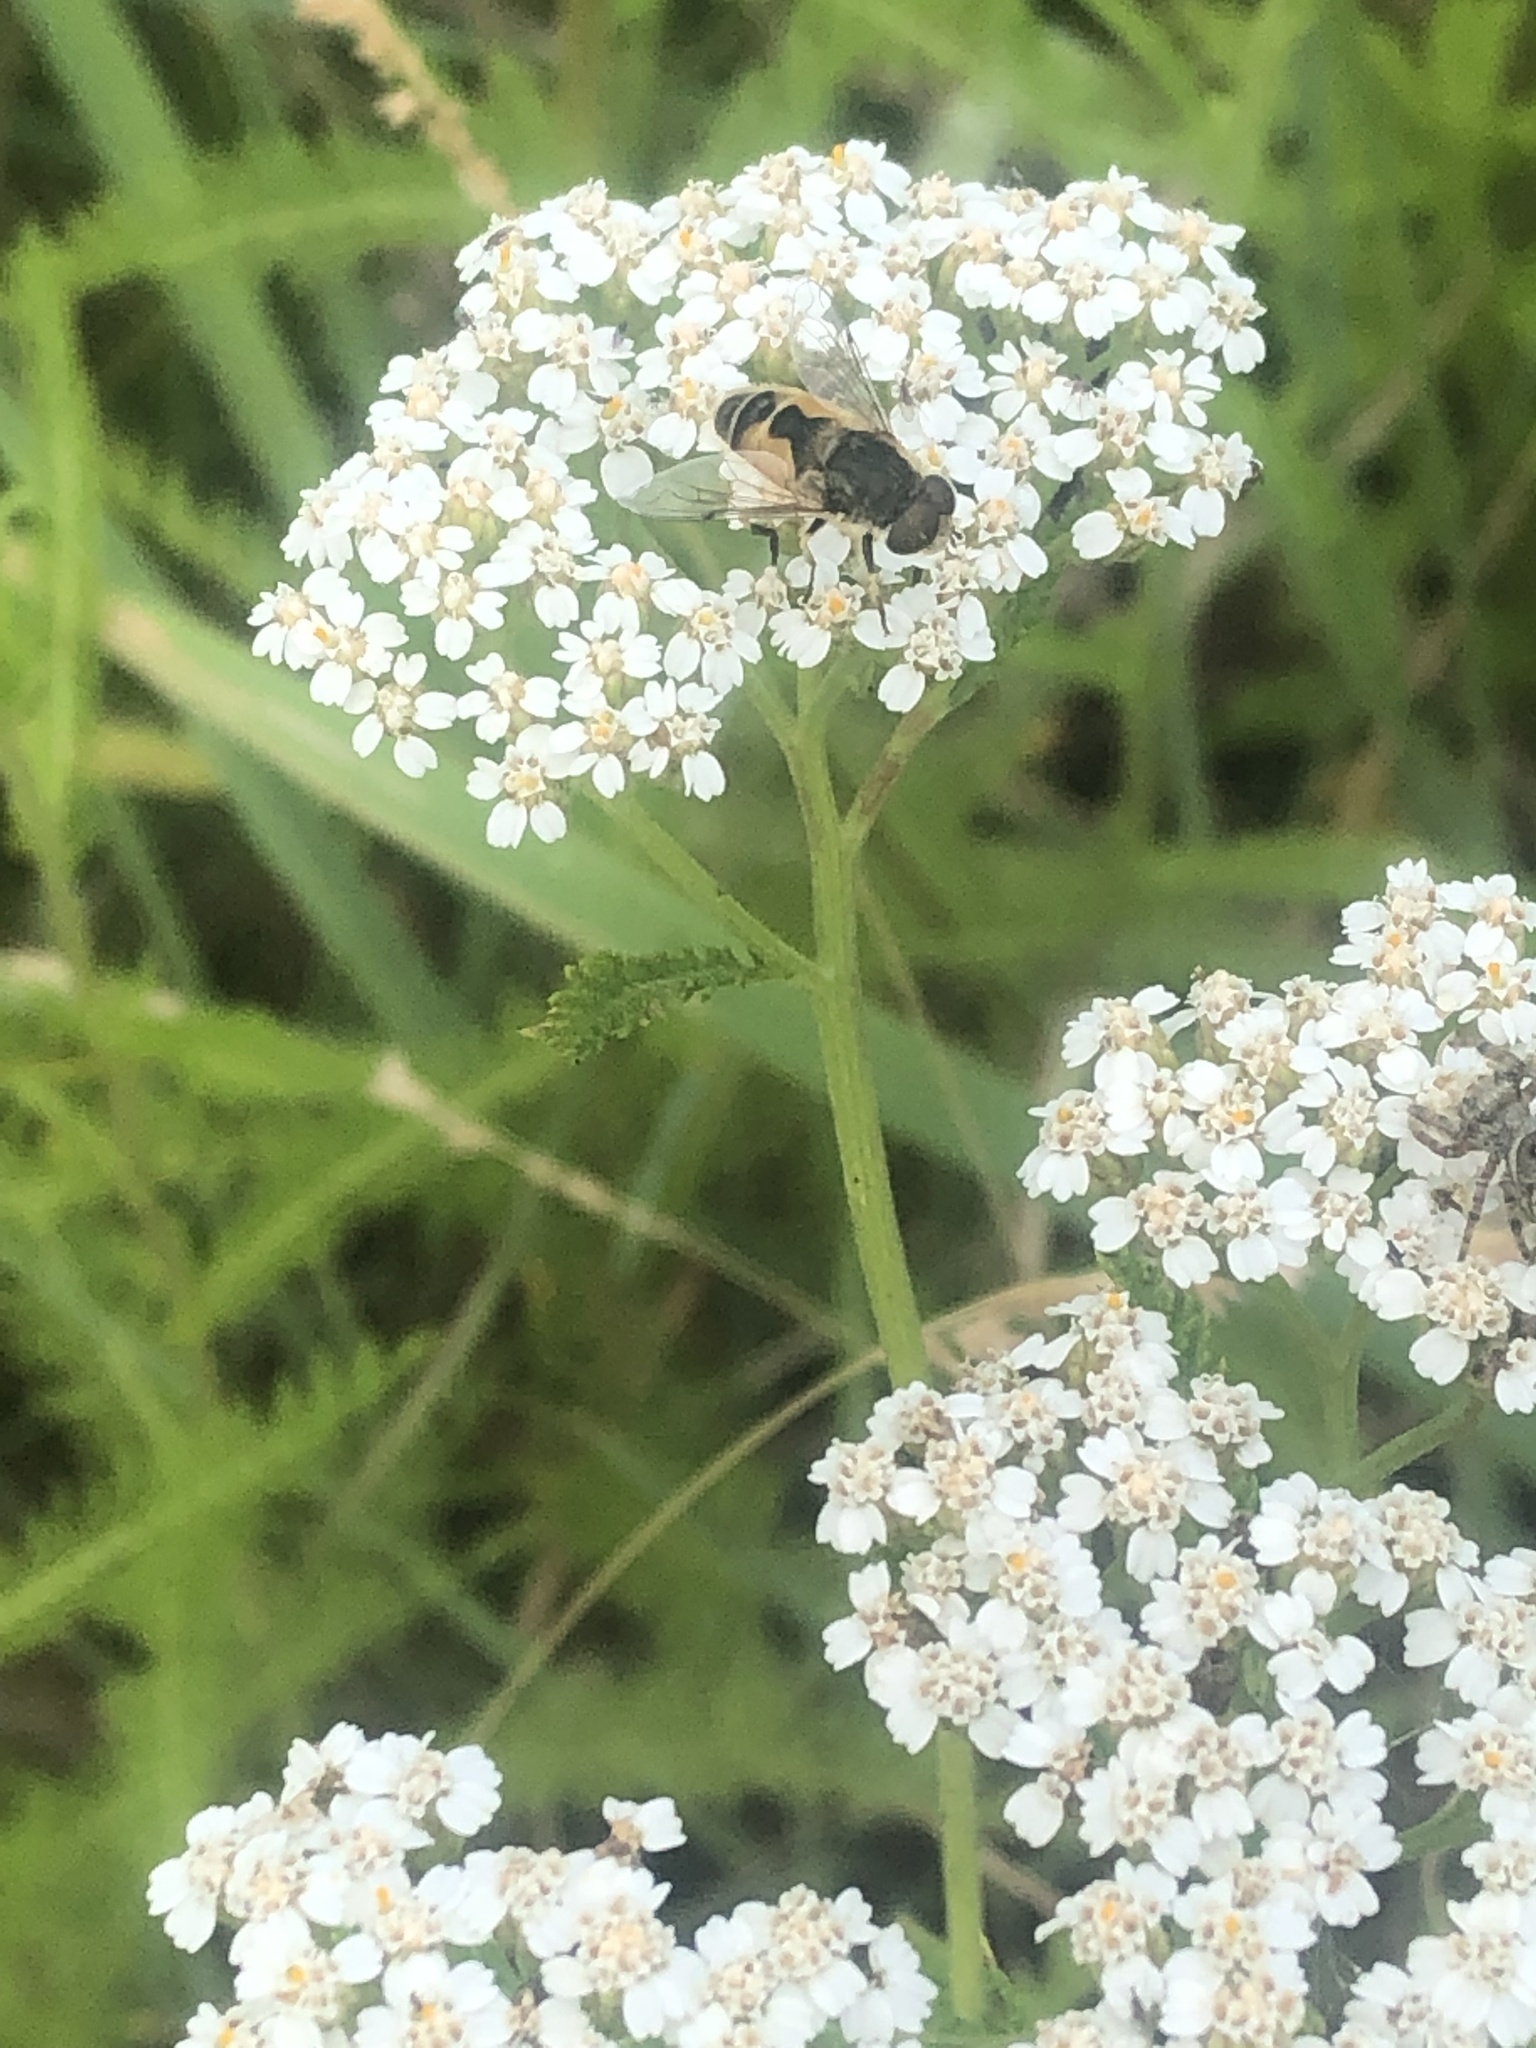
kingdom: Animalia
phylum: Arthropoda
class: Insecta
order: Diptera
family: Syrphidae
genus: Eristalis
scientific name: Eristalis arbustorum
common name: Hover fly
